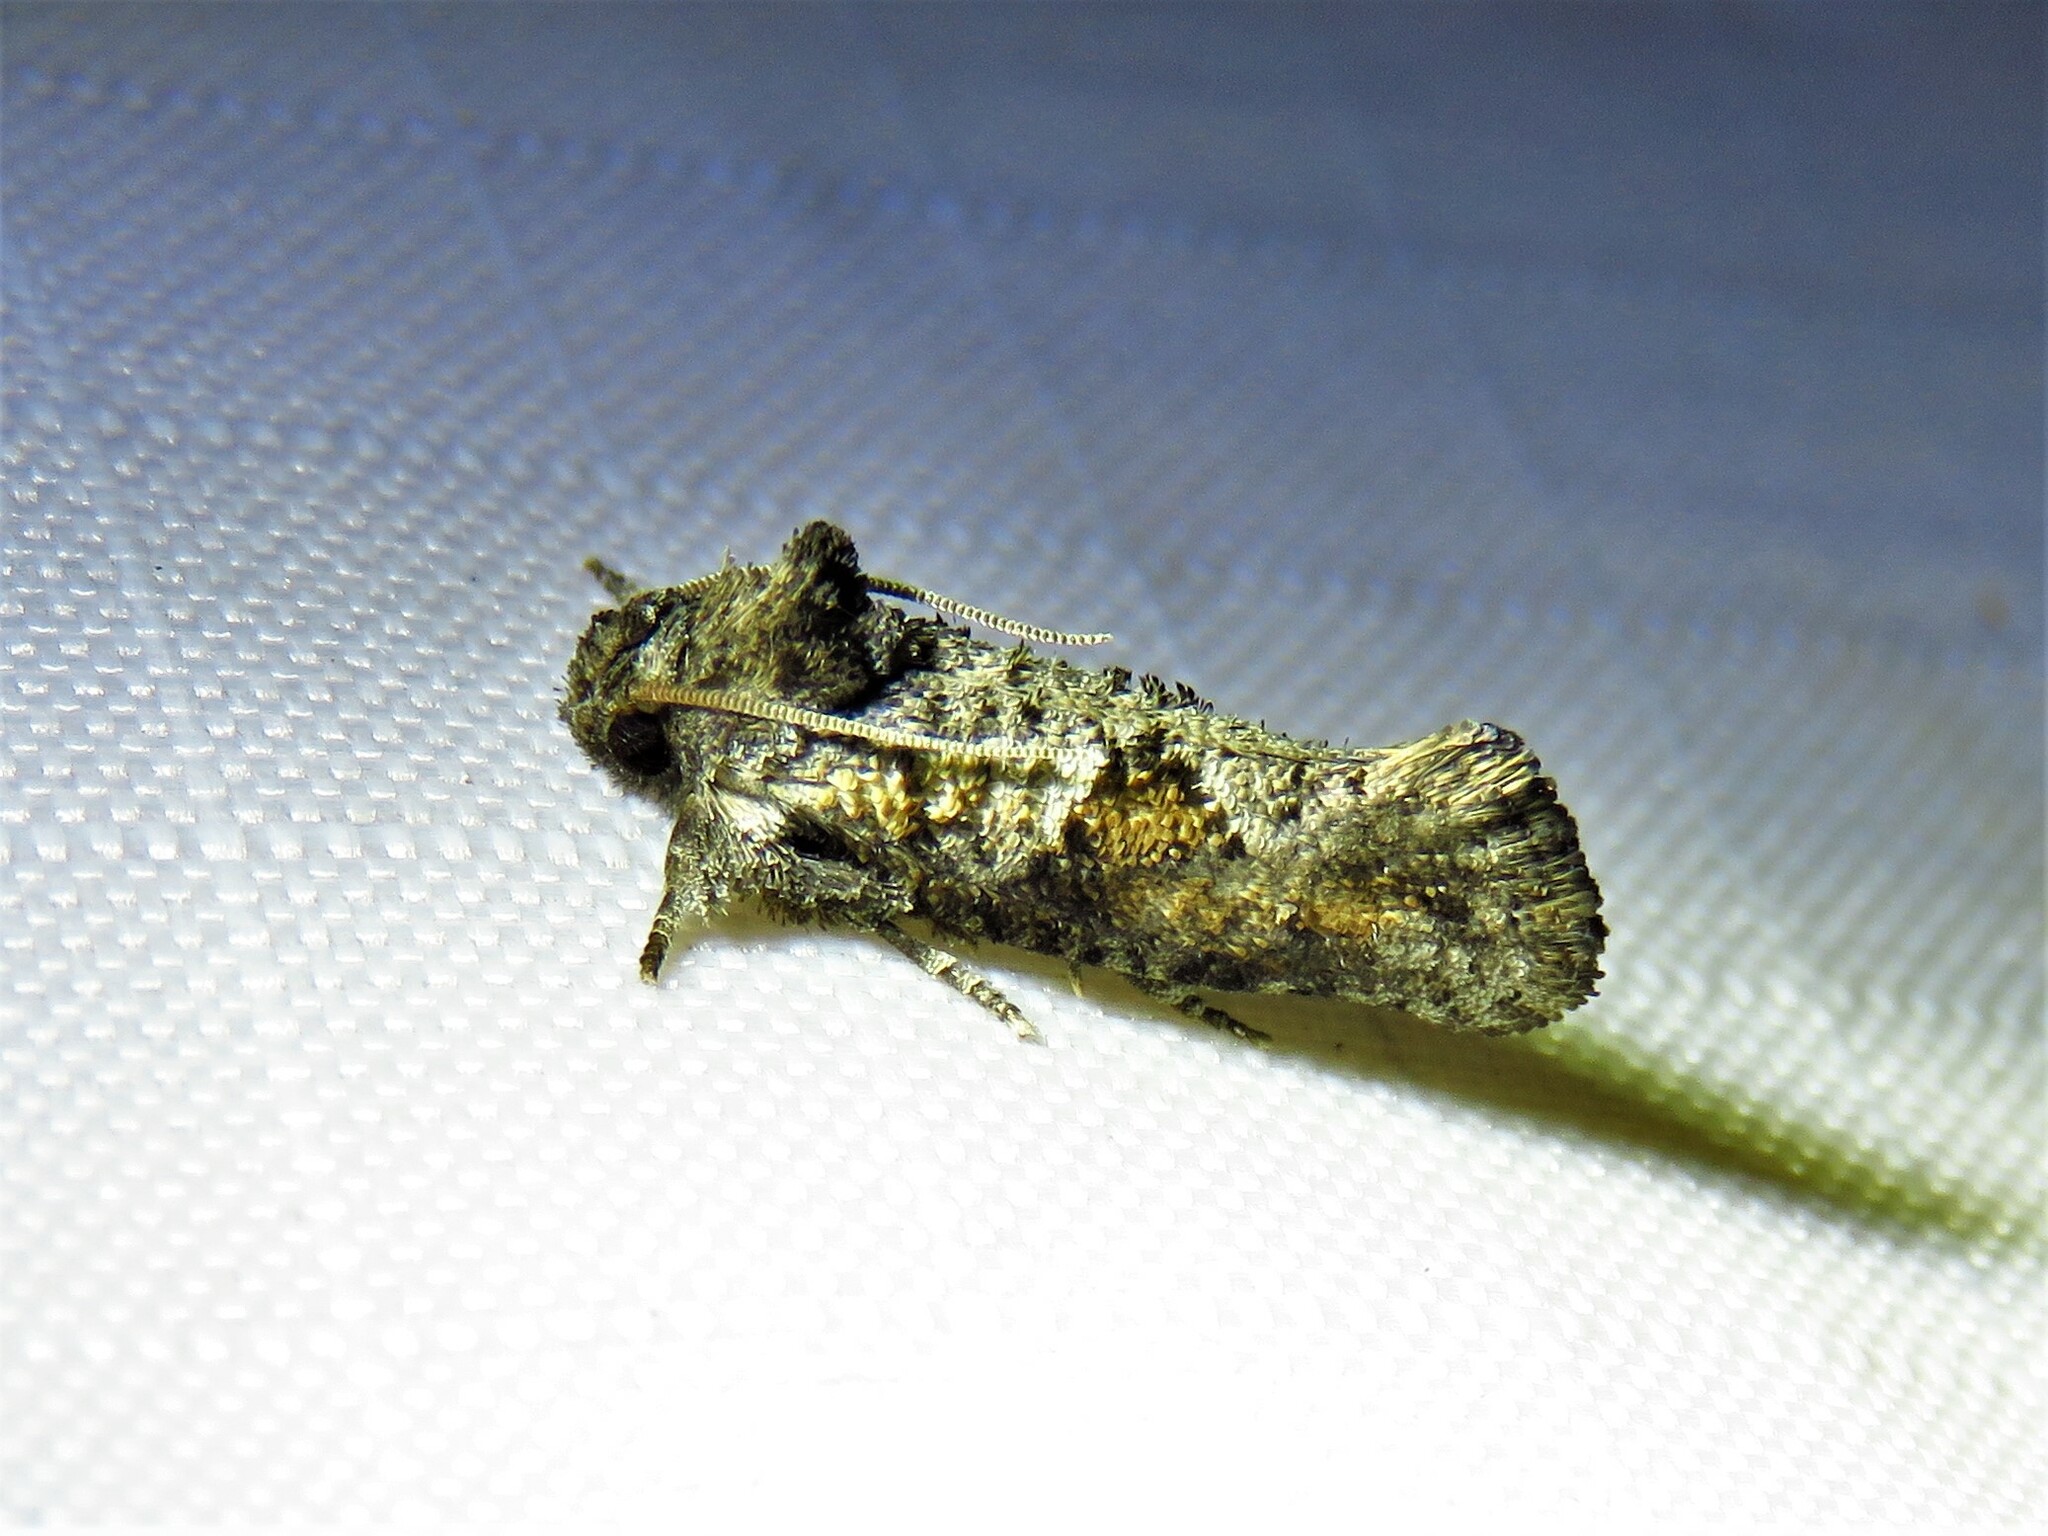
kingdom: Animalia
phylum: Arthropoda
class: Insecta
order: Lepidoptera
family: Tineidae
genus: Acrolophus
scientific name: Acrolophus piger
